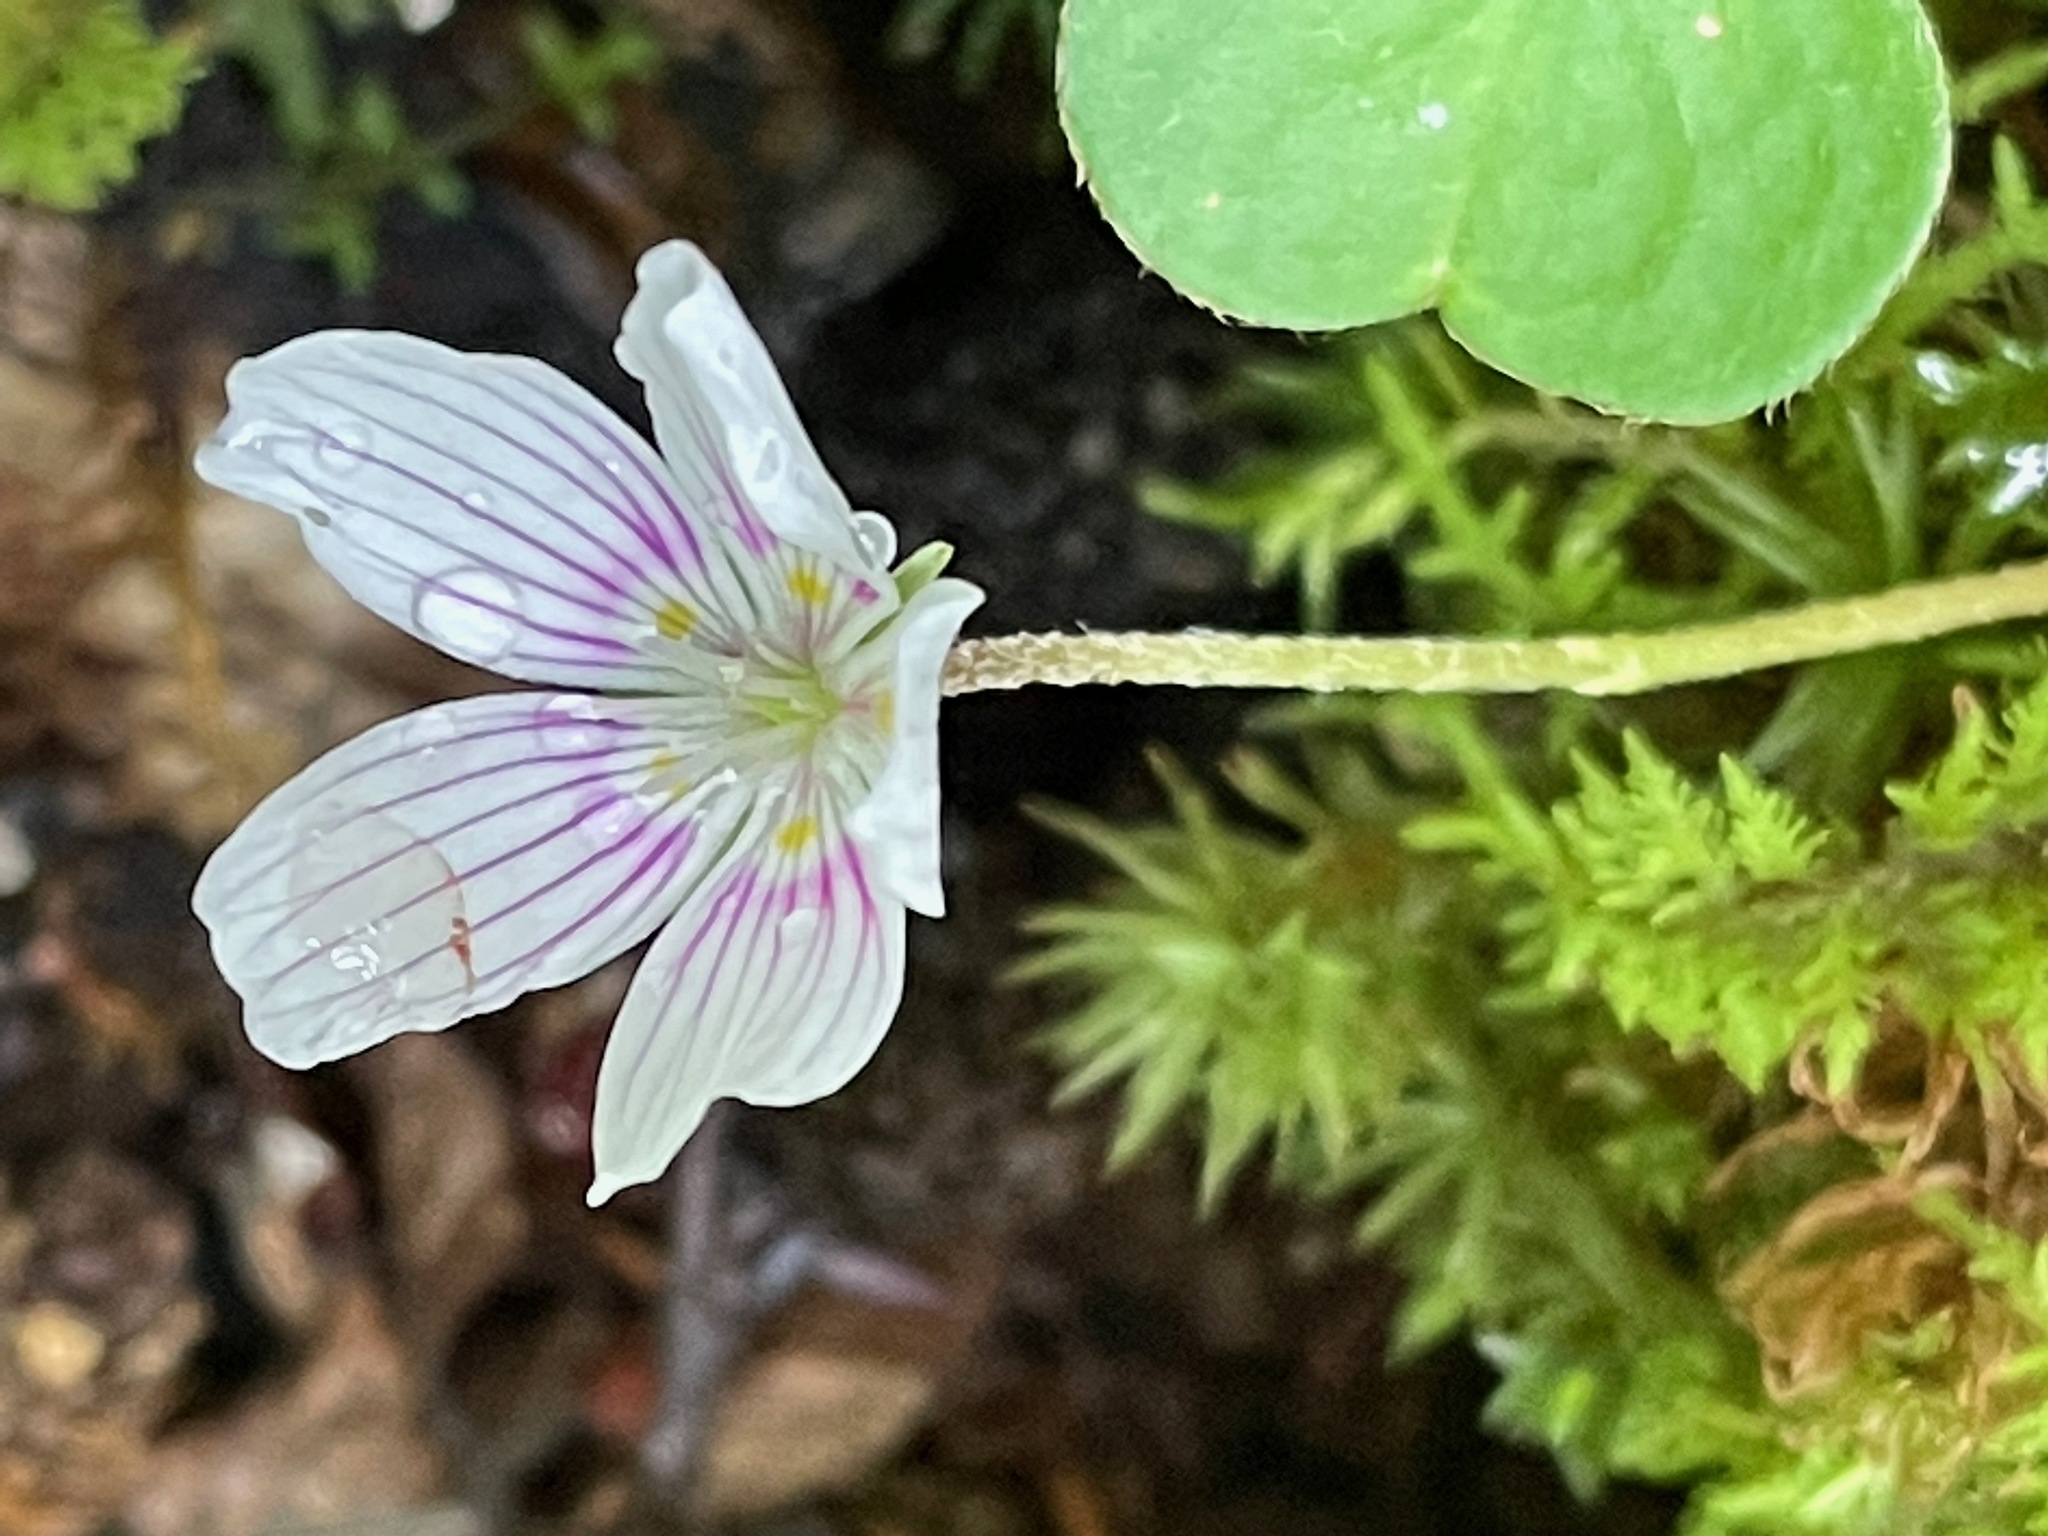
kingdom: Plantae
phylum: Tracheophyta
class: Magnoliopsida
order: Oxalidales
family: Oxalidaceae
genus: Oxalis
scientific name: Oxalis montana
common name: American wood-sorrel
